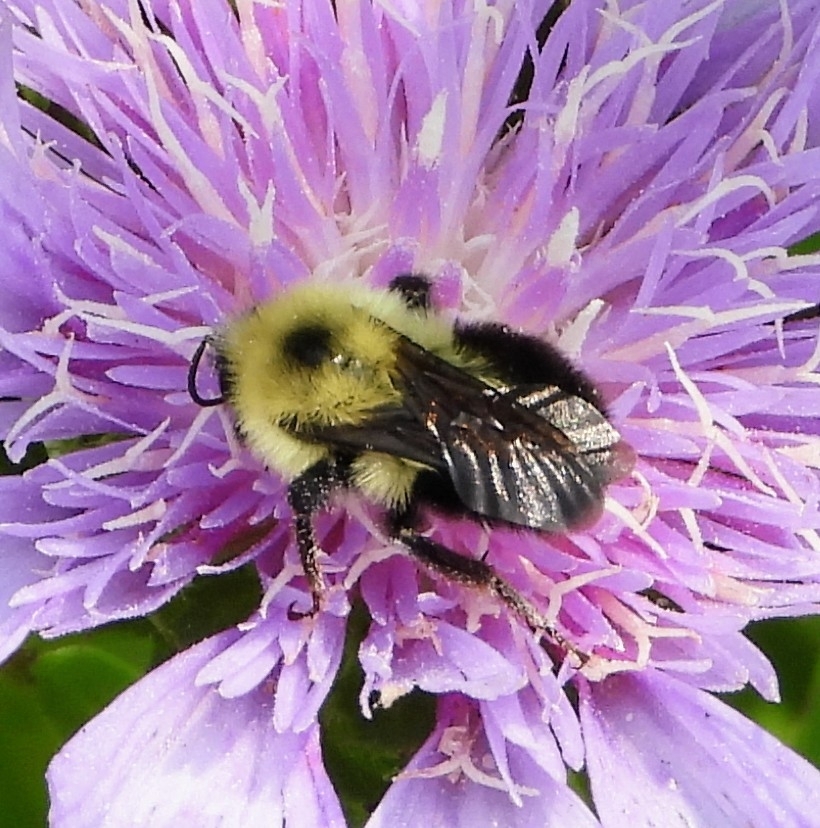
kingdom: Animalia
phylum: Arthropoda
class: Insecta
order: Hymenoptera
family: Apidae
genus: Bombus
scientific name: Bombus bimaculatus
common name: Two-spotted bumble bee
